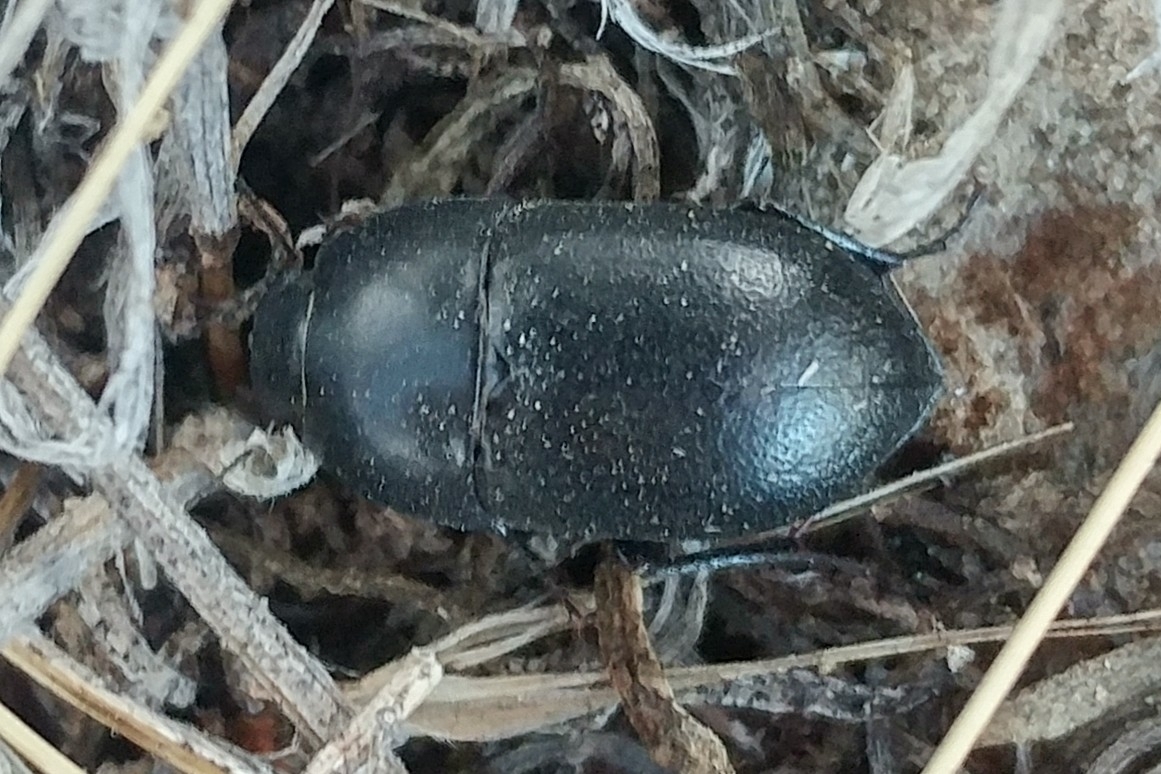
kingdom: Animalia
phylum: Arthropoda
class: Insecta
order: Coleoptera
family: Tenebrionidae
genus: Coniontis
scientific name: Coniontis
